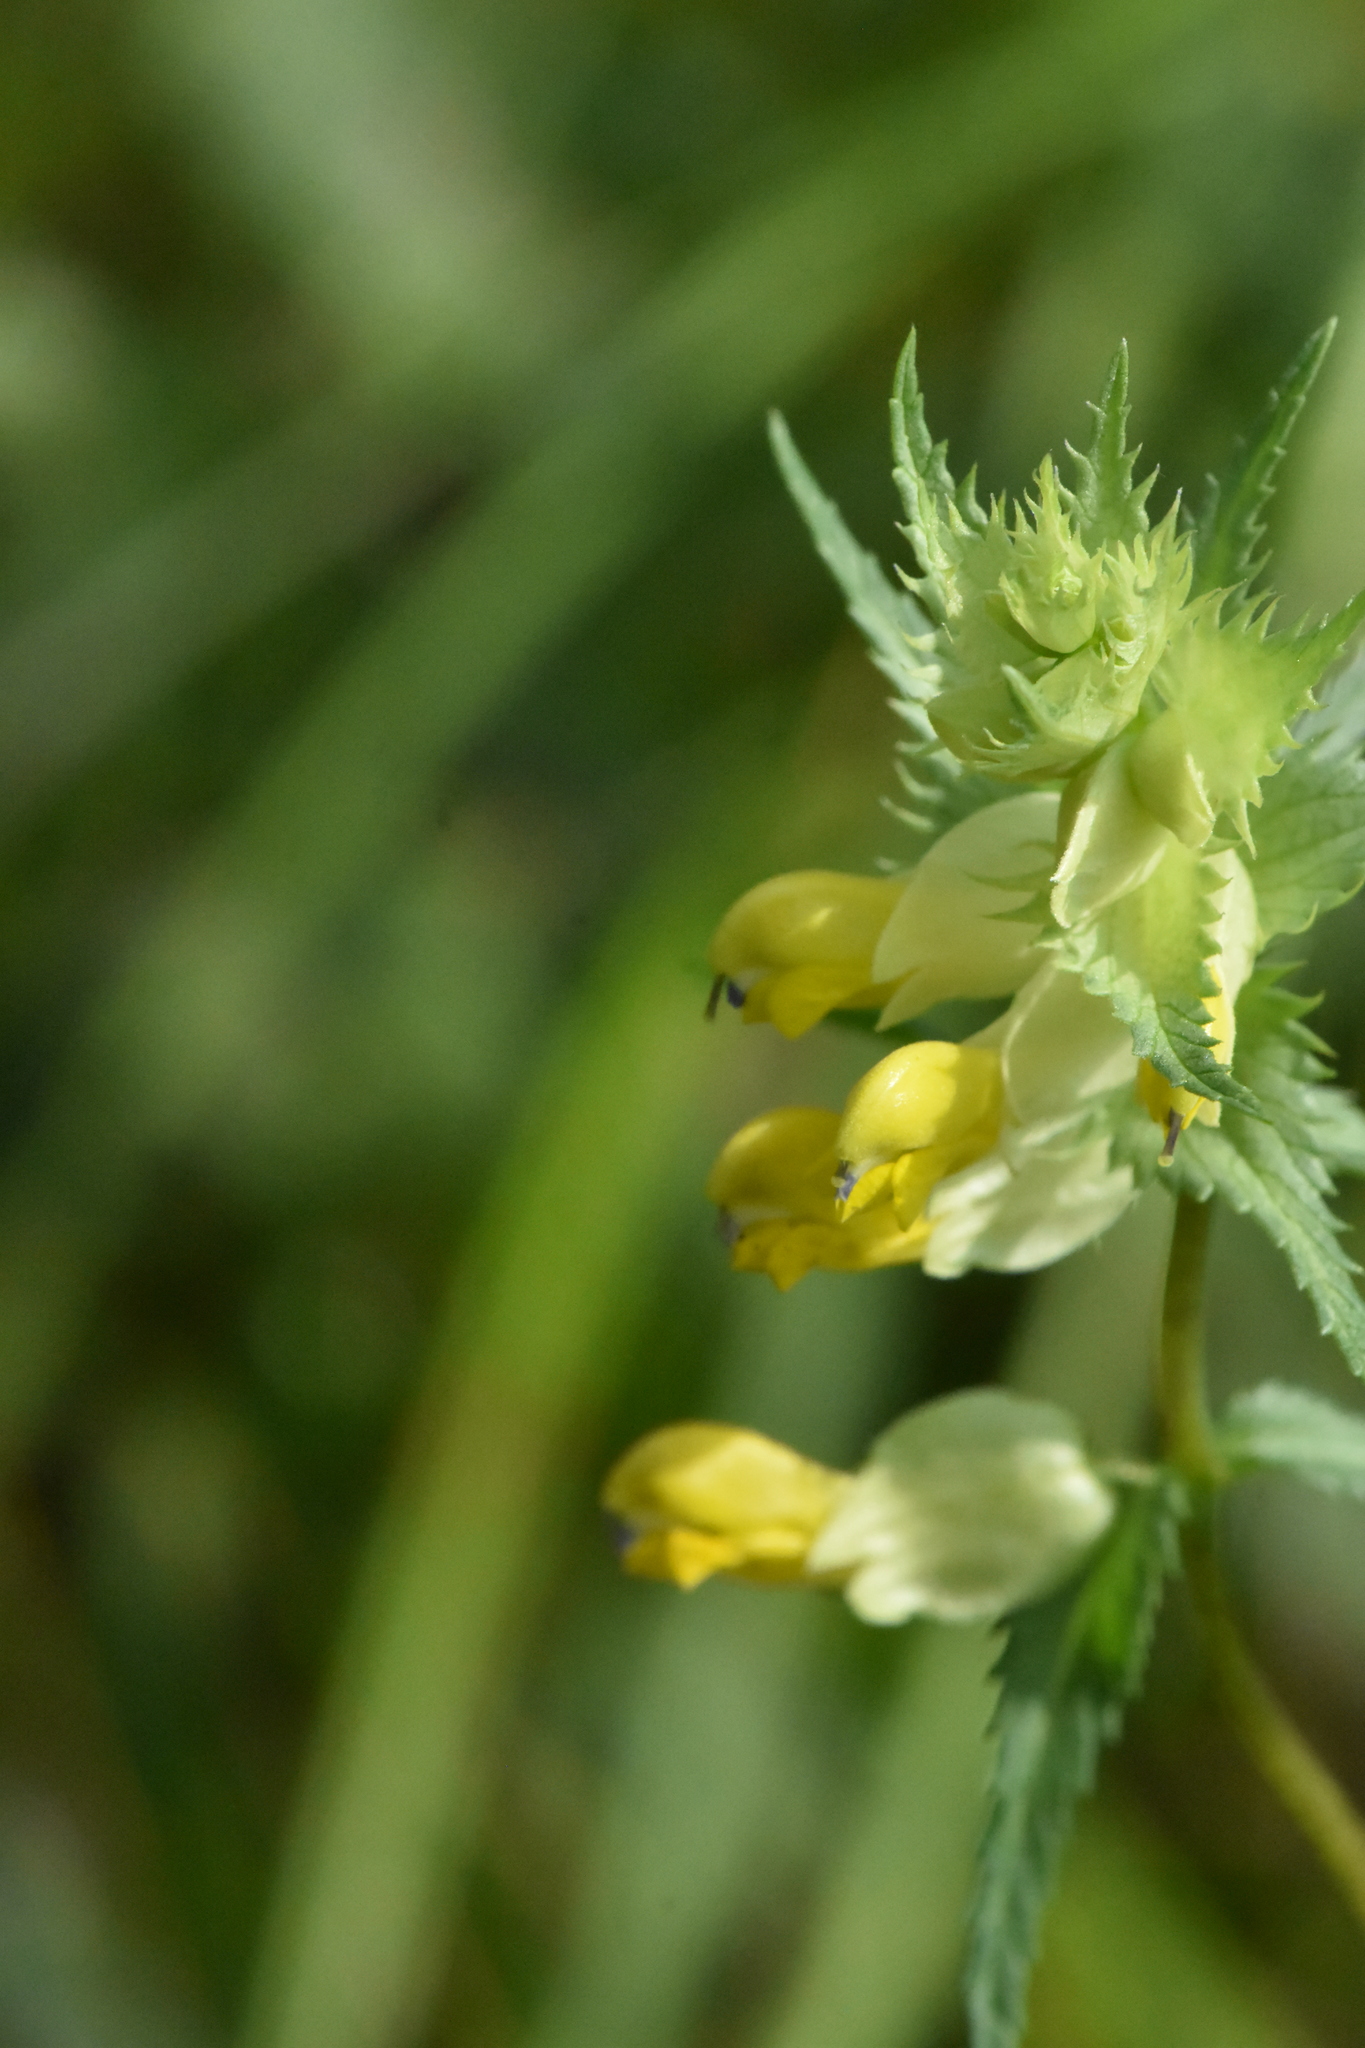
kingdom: Plantae
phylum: Tracheophyta
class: Magnoliopsida
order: Lamiales
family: Orobanchaceae
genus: Rhinanthus
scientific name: Rhinanthus serotinus
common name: Late-flowering yellow rattle
